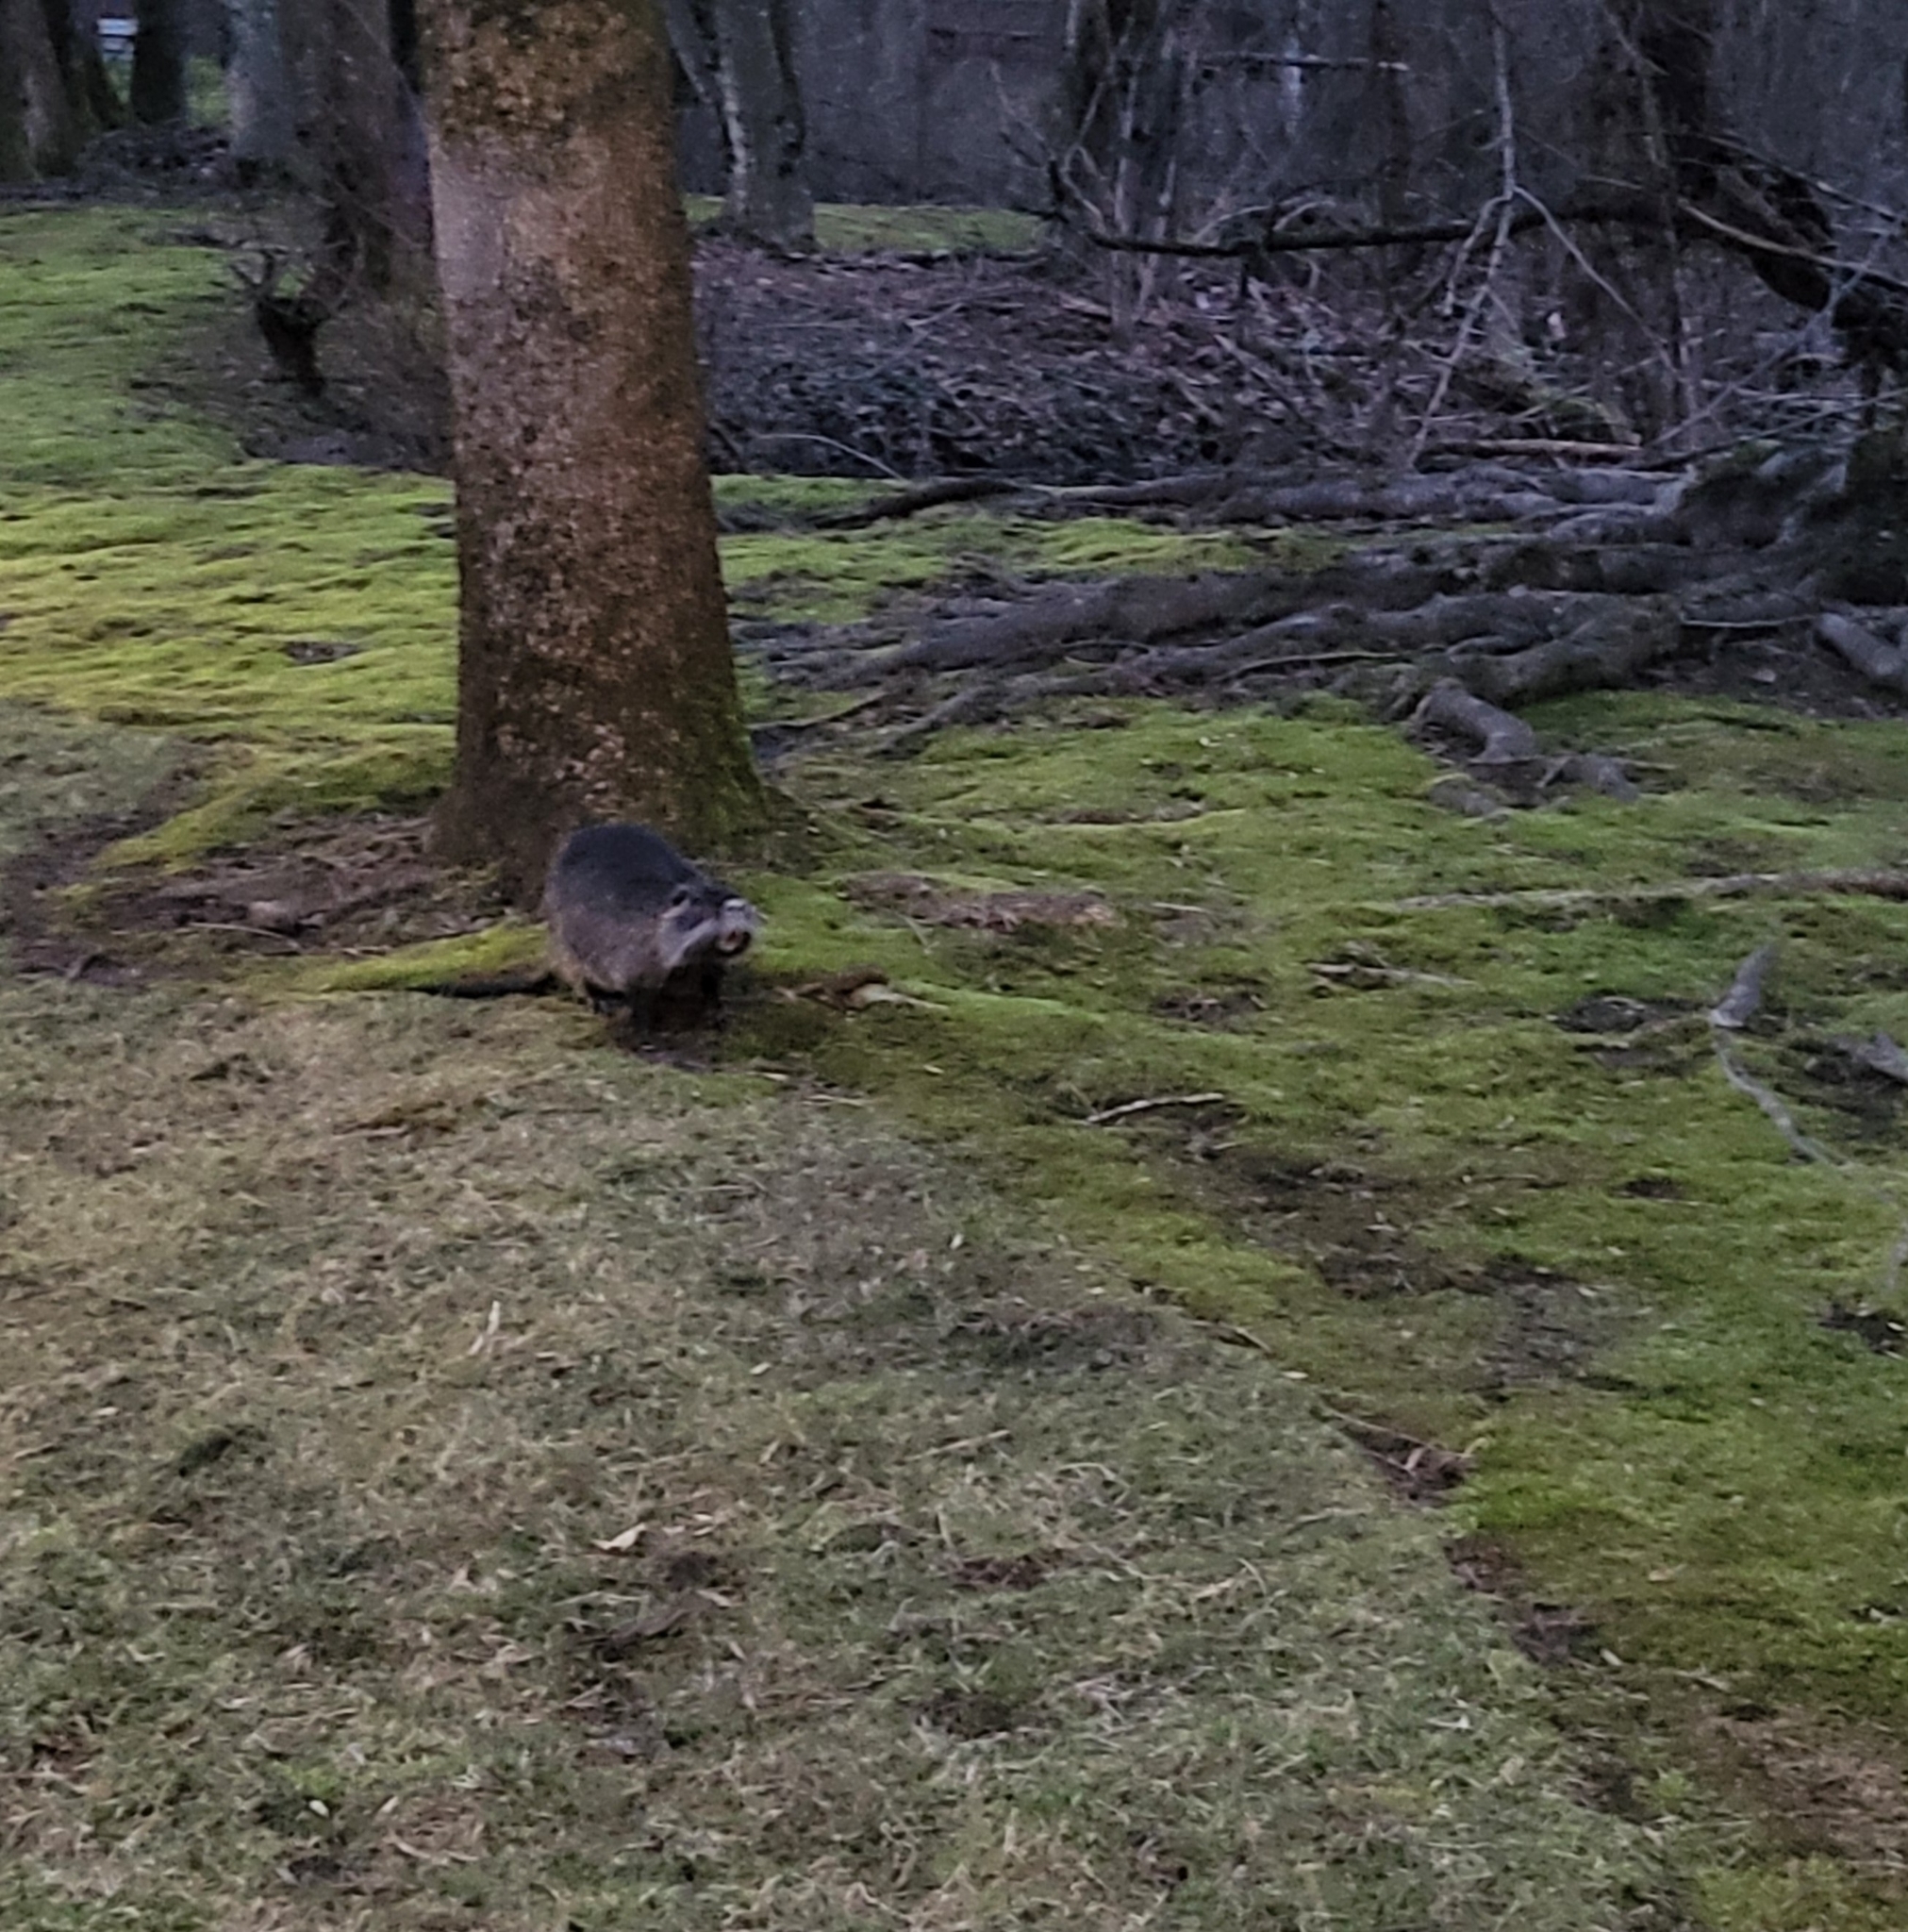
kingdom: Animalia
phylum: Chordata
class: Mammalia
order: Rodentia
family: Myocastoridae
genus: Myocastor
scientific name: Myocastor coypus
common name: Coypu
